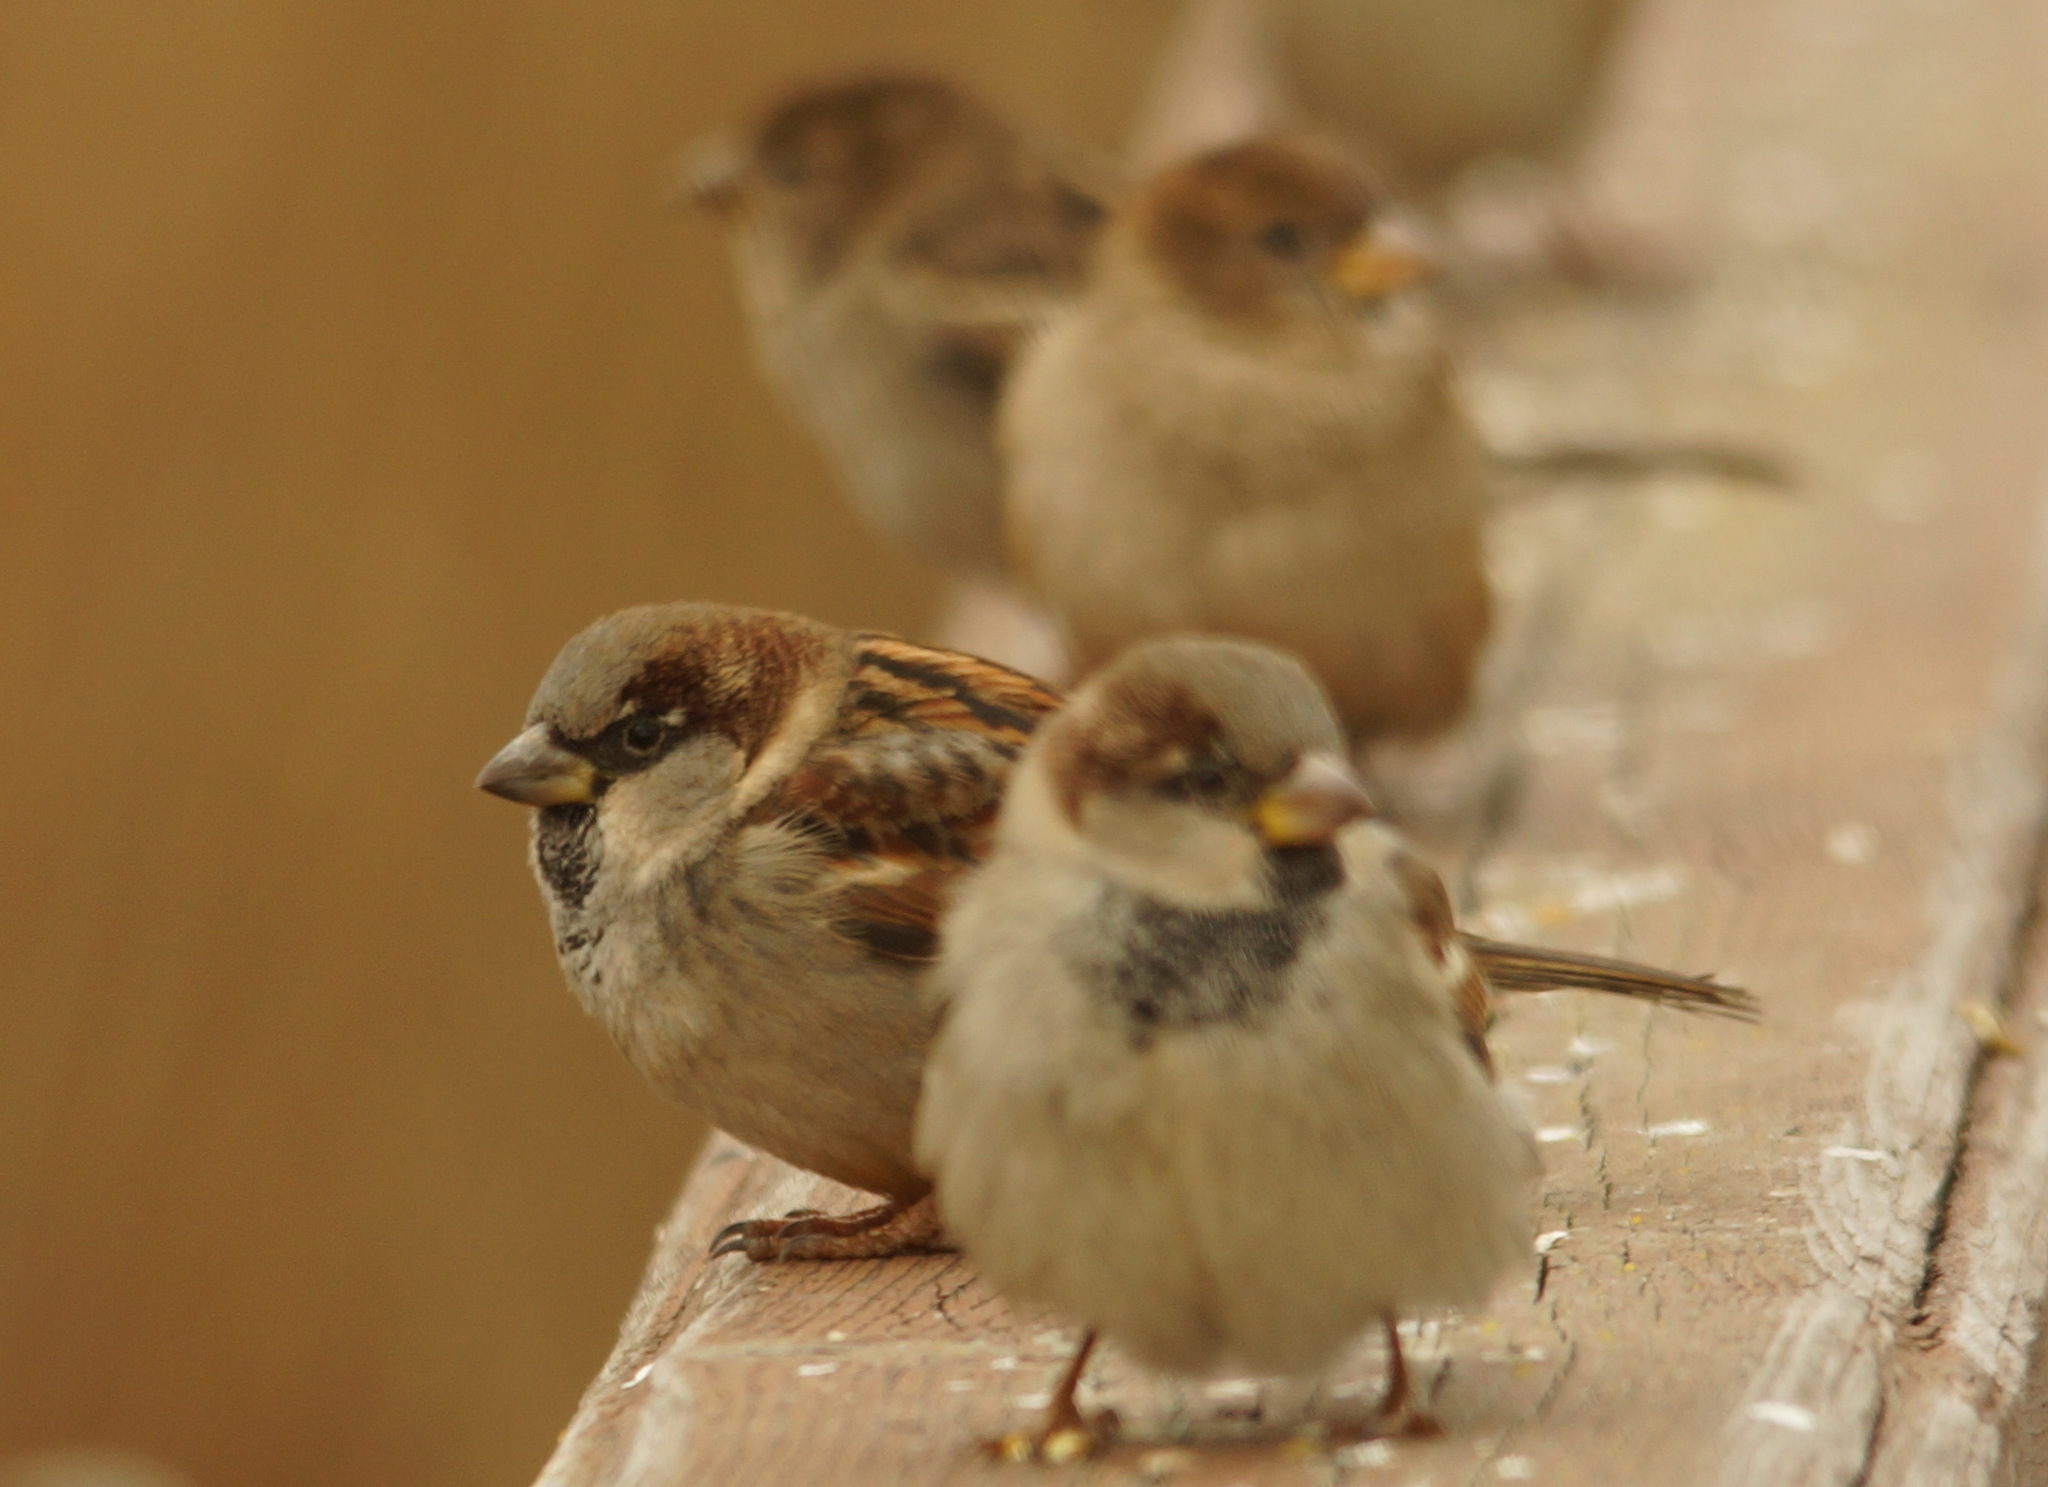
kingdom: Animalia
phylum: Chordata
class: Aves
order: Passeriformes
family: Passeridae
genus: Passer
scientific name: Passer domesticus
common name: House sparrow
